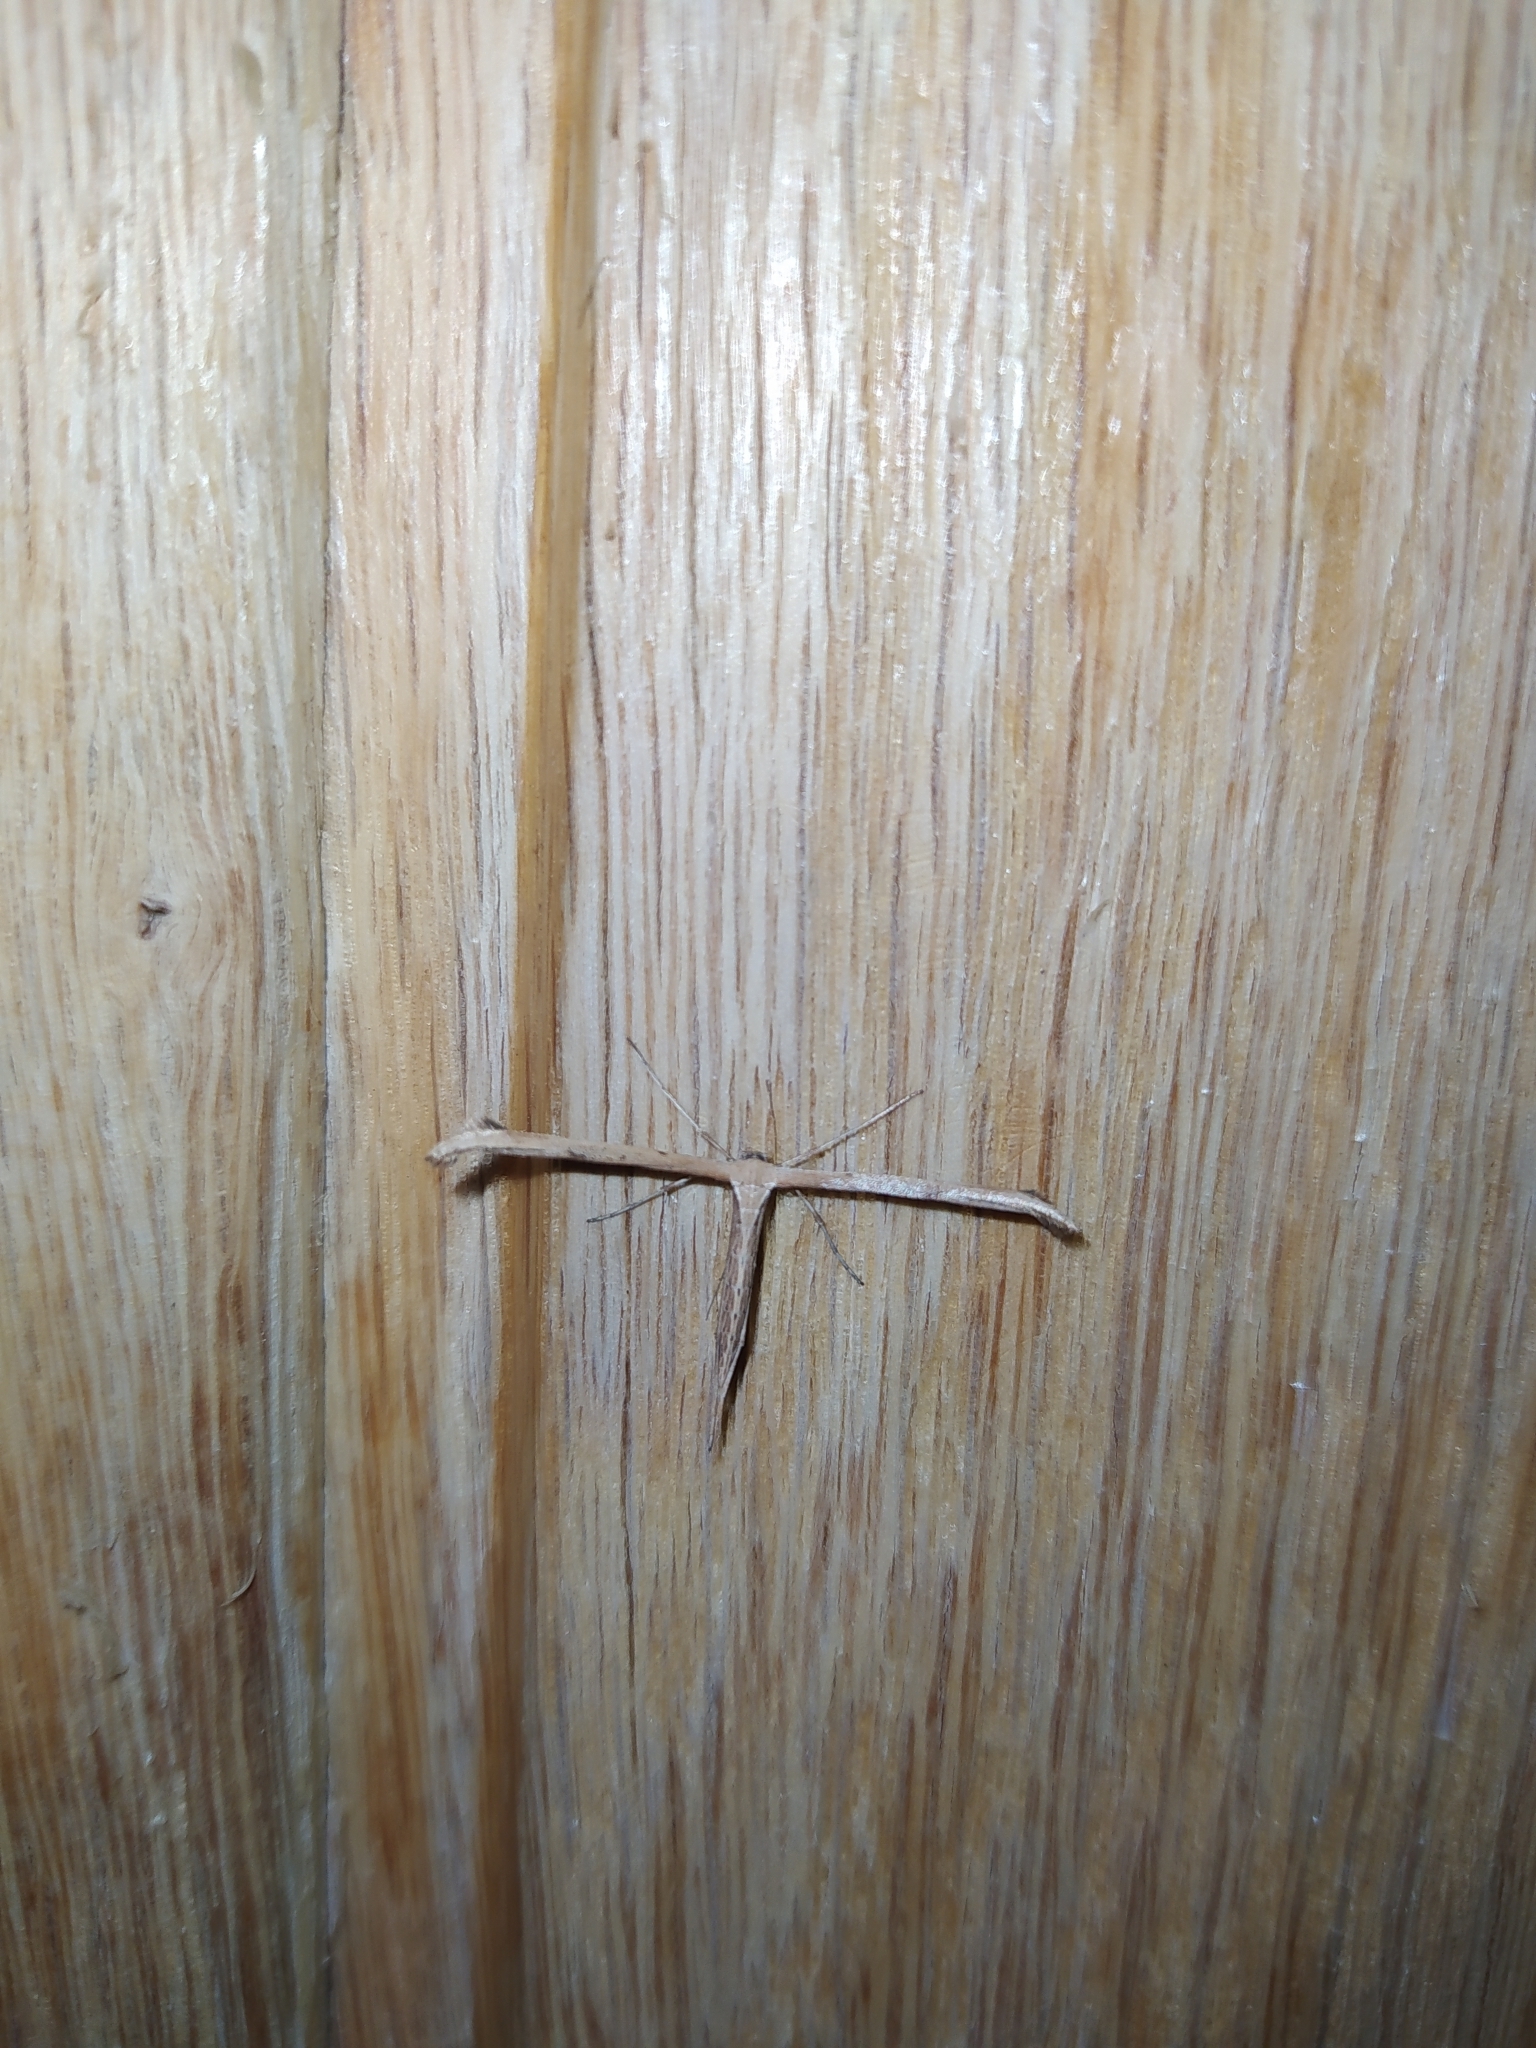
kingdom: Animalia
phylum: Arthropoda
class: Insecta
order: Lepidoptera
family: Pterophoridae
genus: Emmelina
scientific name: Emmelina monodactyla
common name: Common plume
